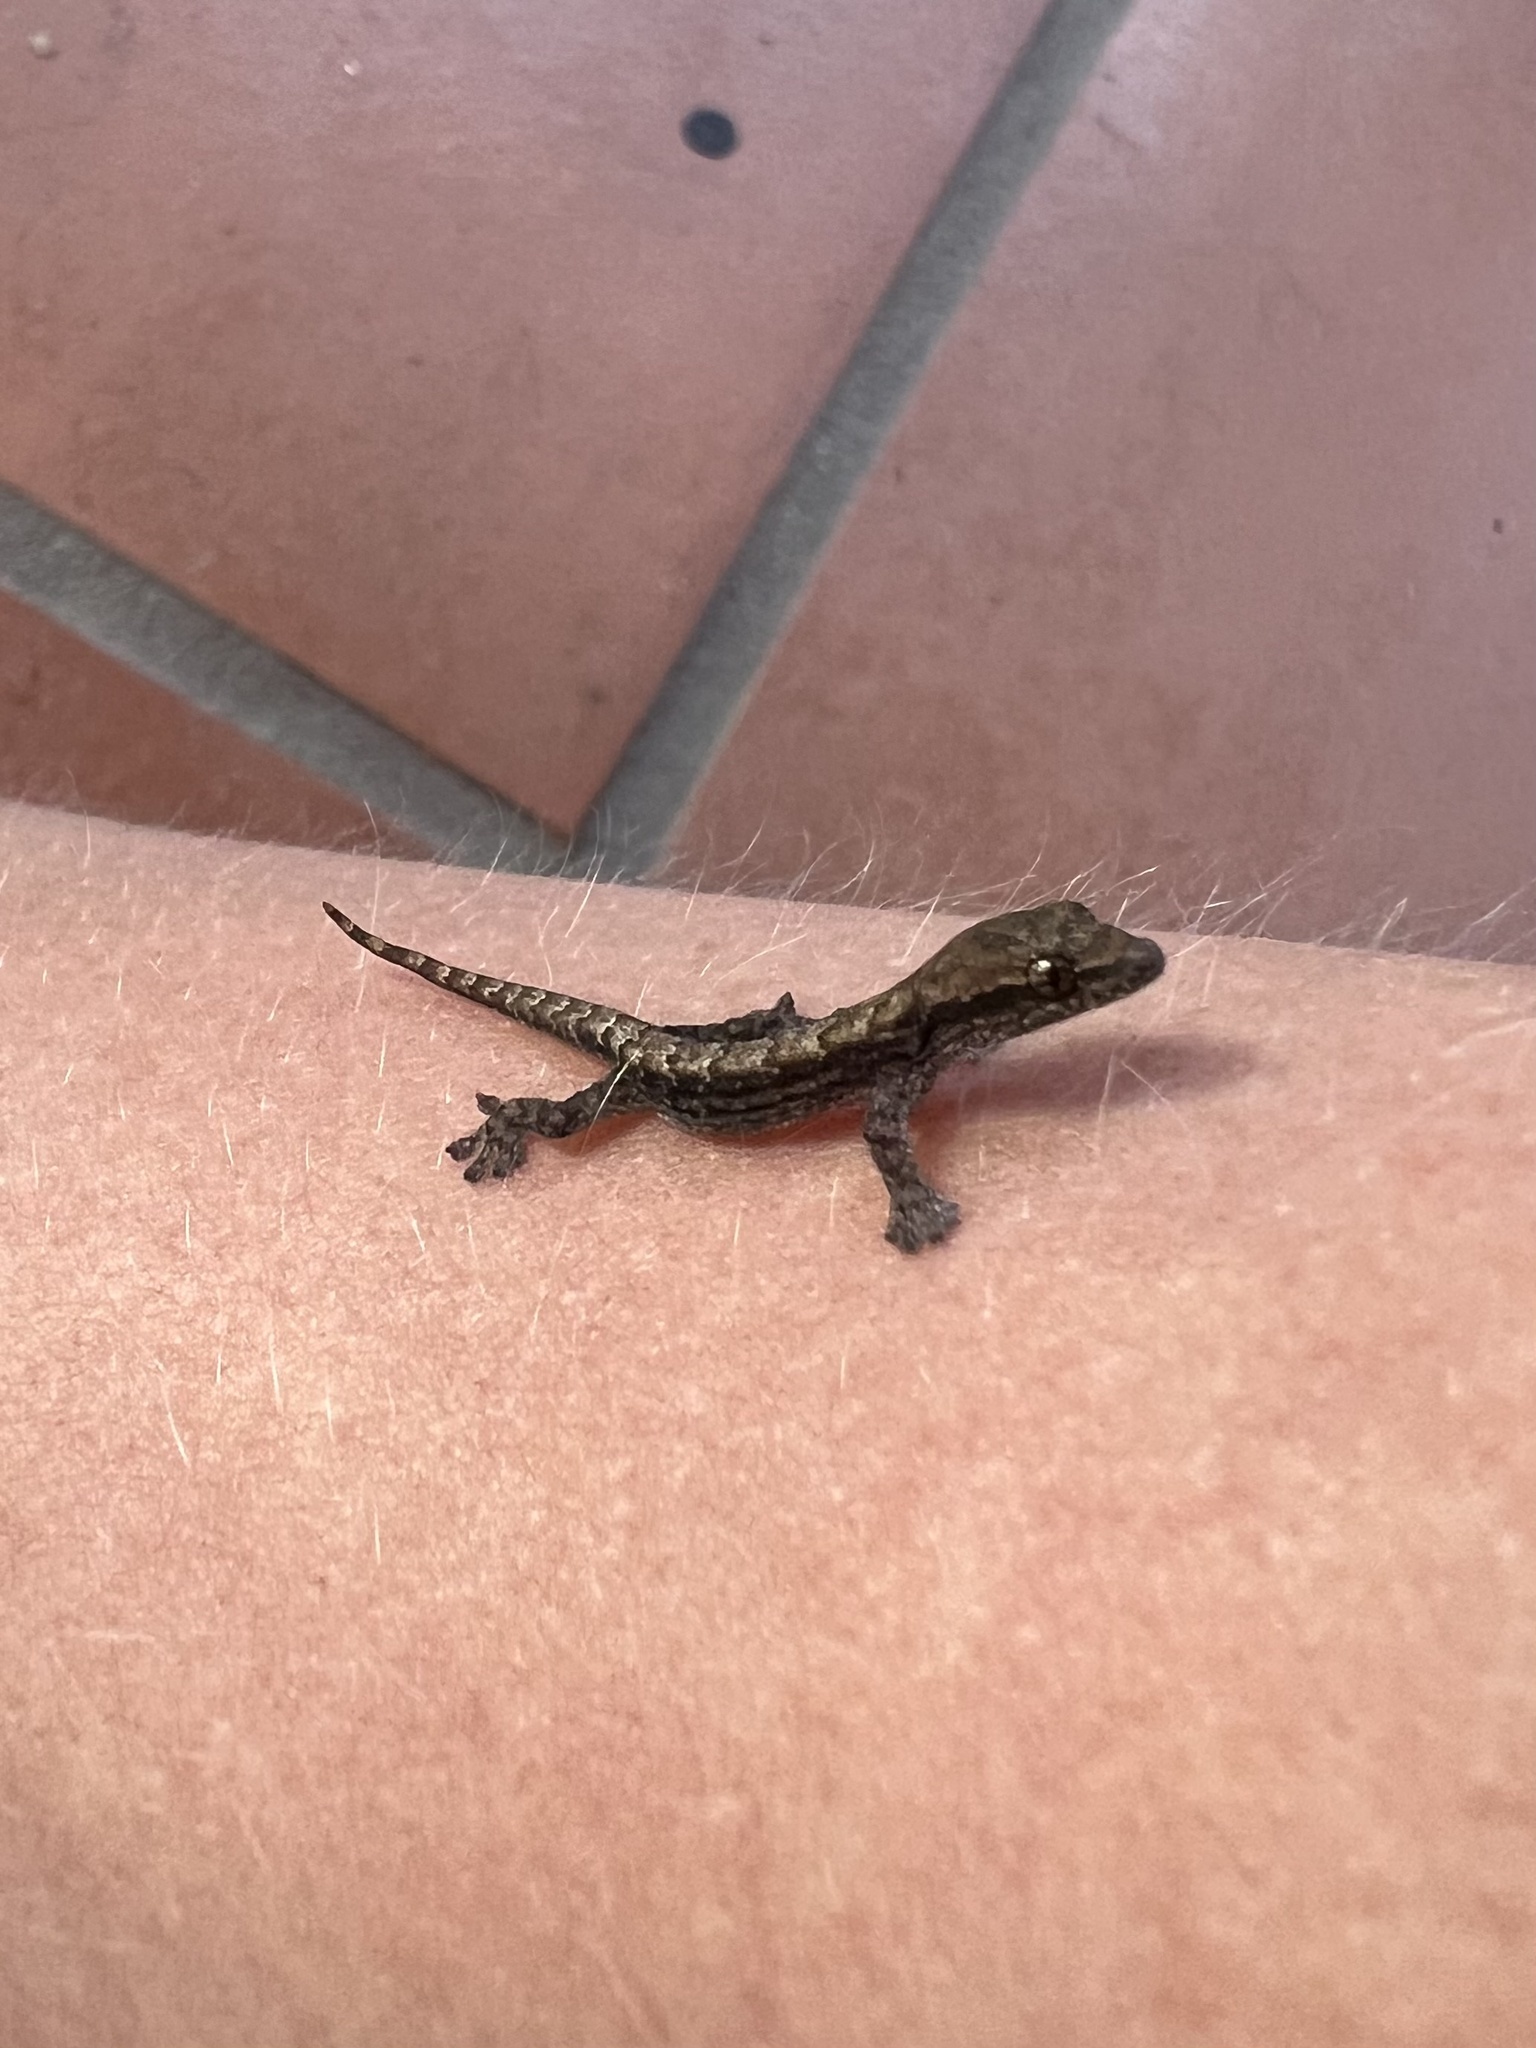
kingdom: Animalia
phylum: Chordata
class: Squamata
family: Gekkonidae
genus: Lepidodactylus
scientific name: Lepidodactylus lugubris
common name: Mourning gecko
